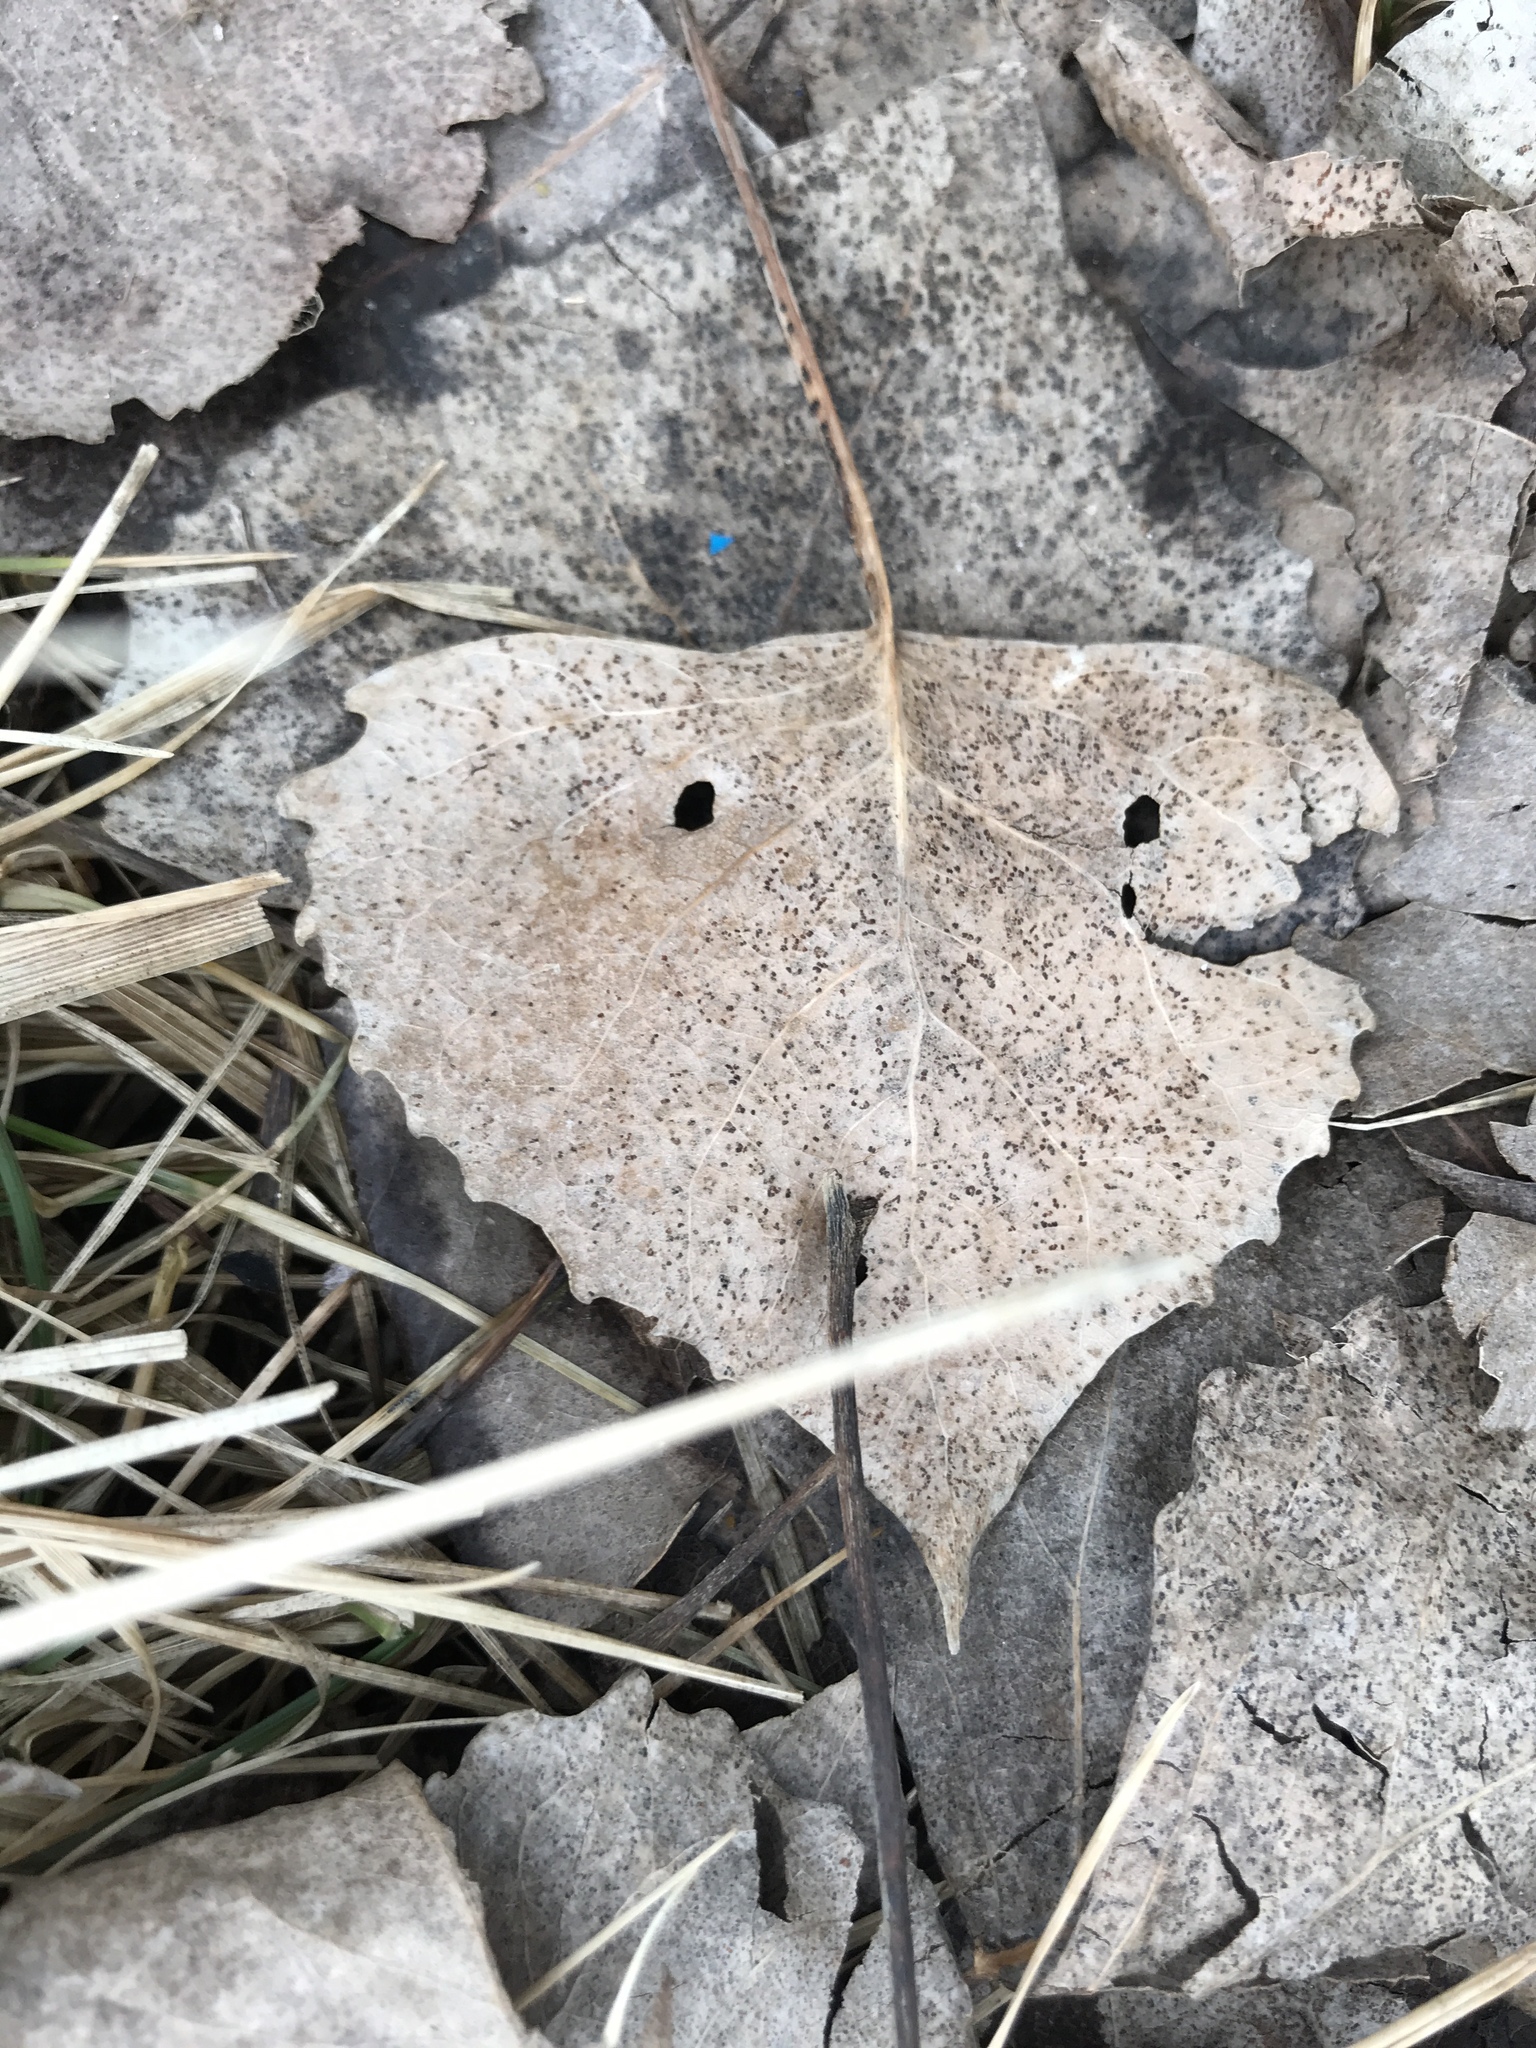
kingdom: Plantae
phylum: Tracheophyta
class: Magnoliopsida
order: Malpighiales
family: Salicaceae
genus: Populus
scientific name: Populus deltoides
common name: Eastern cottonwood
